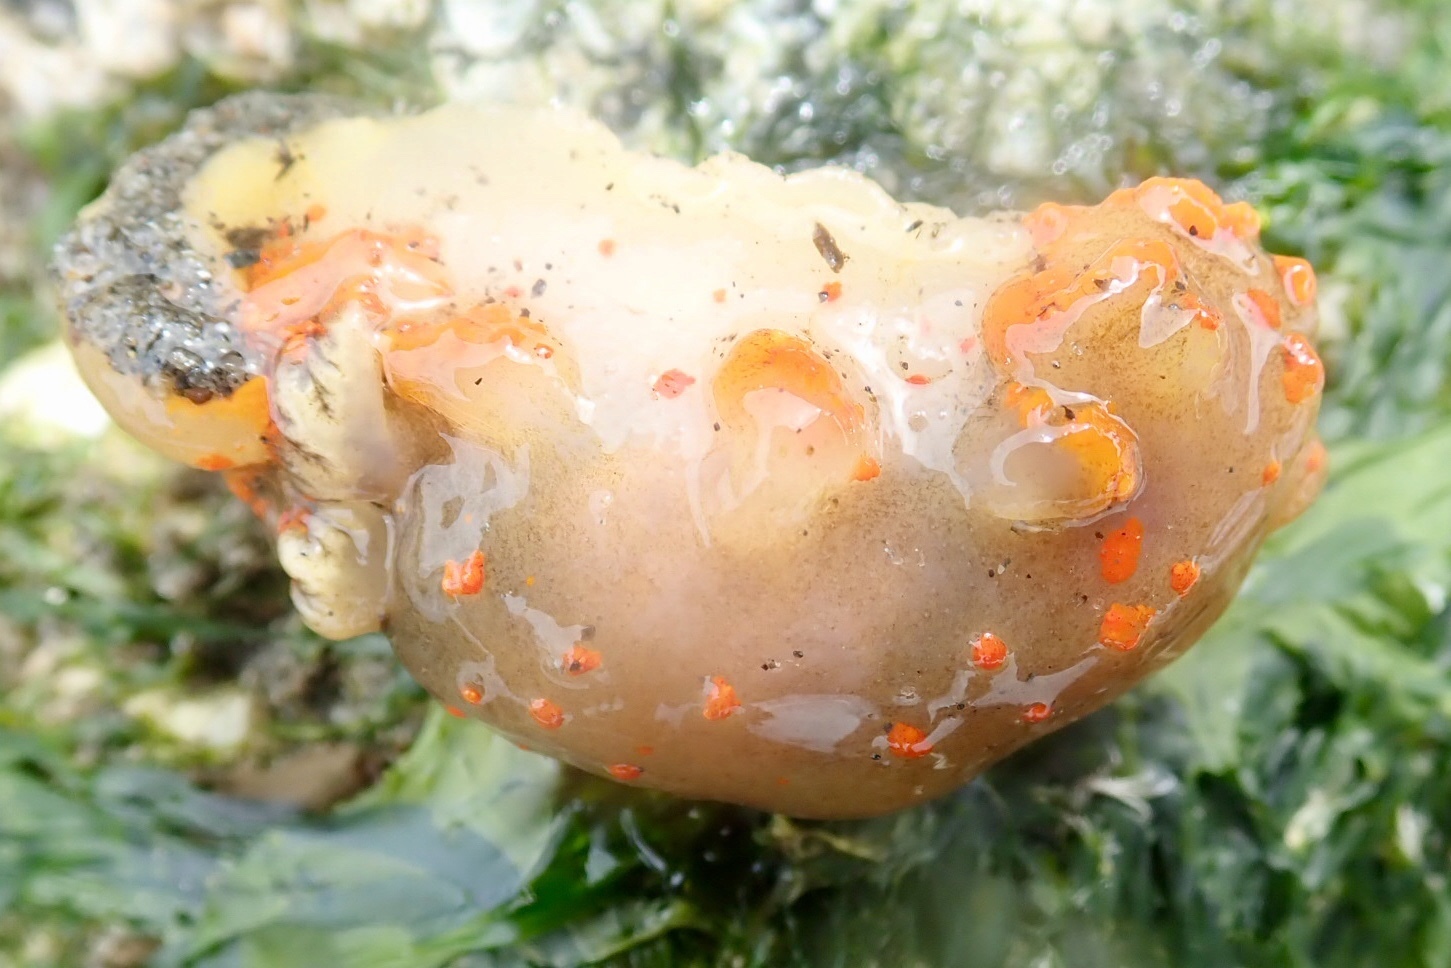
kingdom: Animalia
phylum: Mollusca
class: Gastropoda
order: Nudibranchia
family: Polyceridae
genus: Triopha
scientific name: Triopha catalinae
